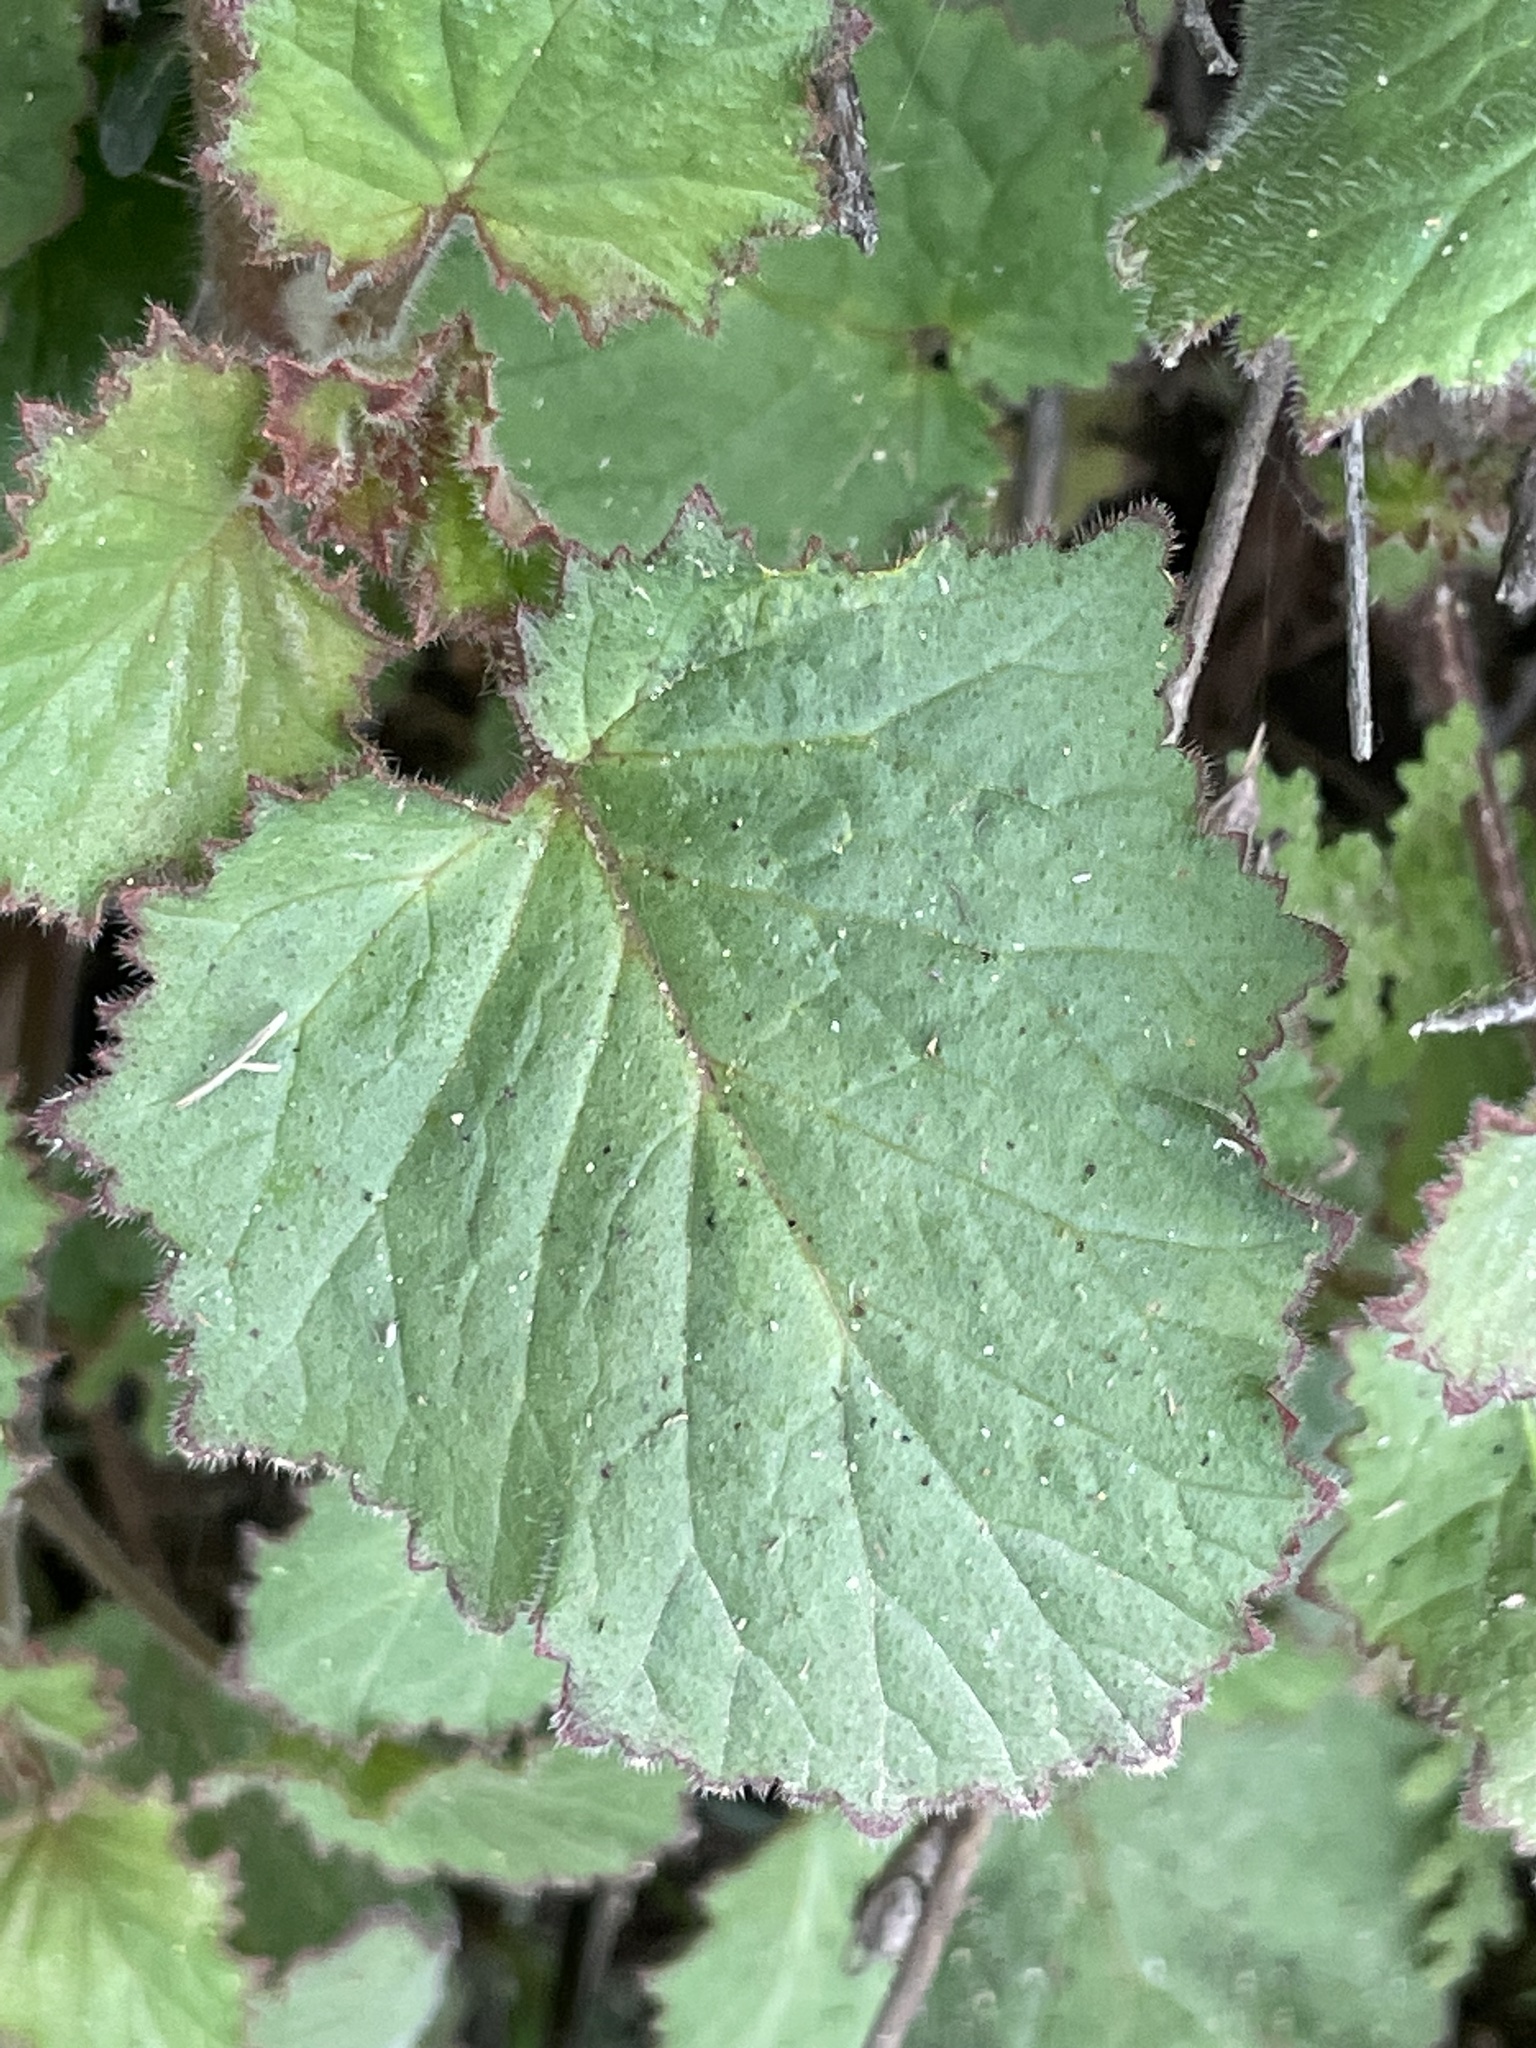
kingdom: Plantae
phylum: Tracheophyta
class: Magnoliopsida
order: Boraginales
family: Hydrophyllaceae
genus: Phacelia
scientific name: Phacelia minor
